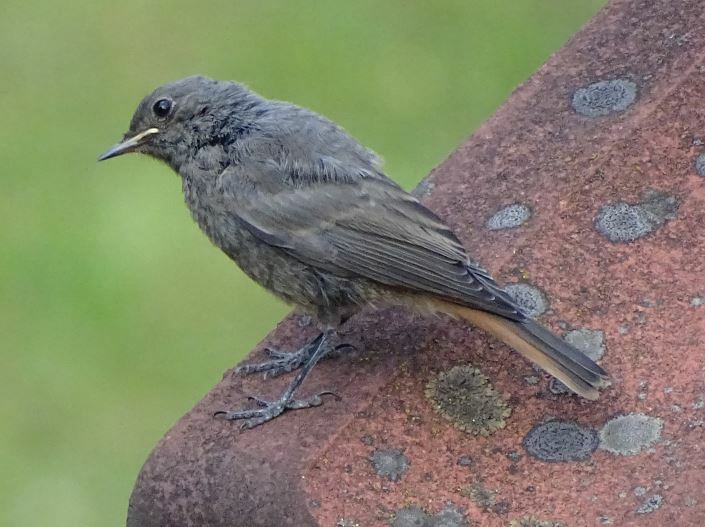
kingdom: Animalia
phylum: Chordata
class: Aves
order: Passeriformes
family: Muscicapidae
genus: Phoenicurus
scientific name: Phoenicurus ochruros
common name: Black redstart
